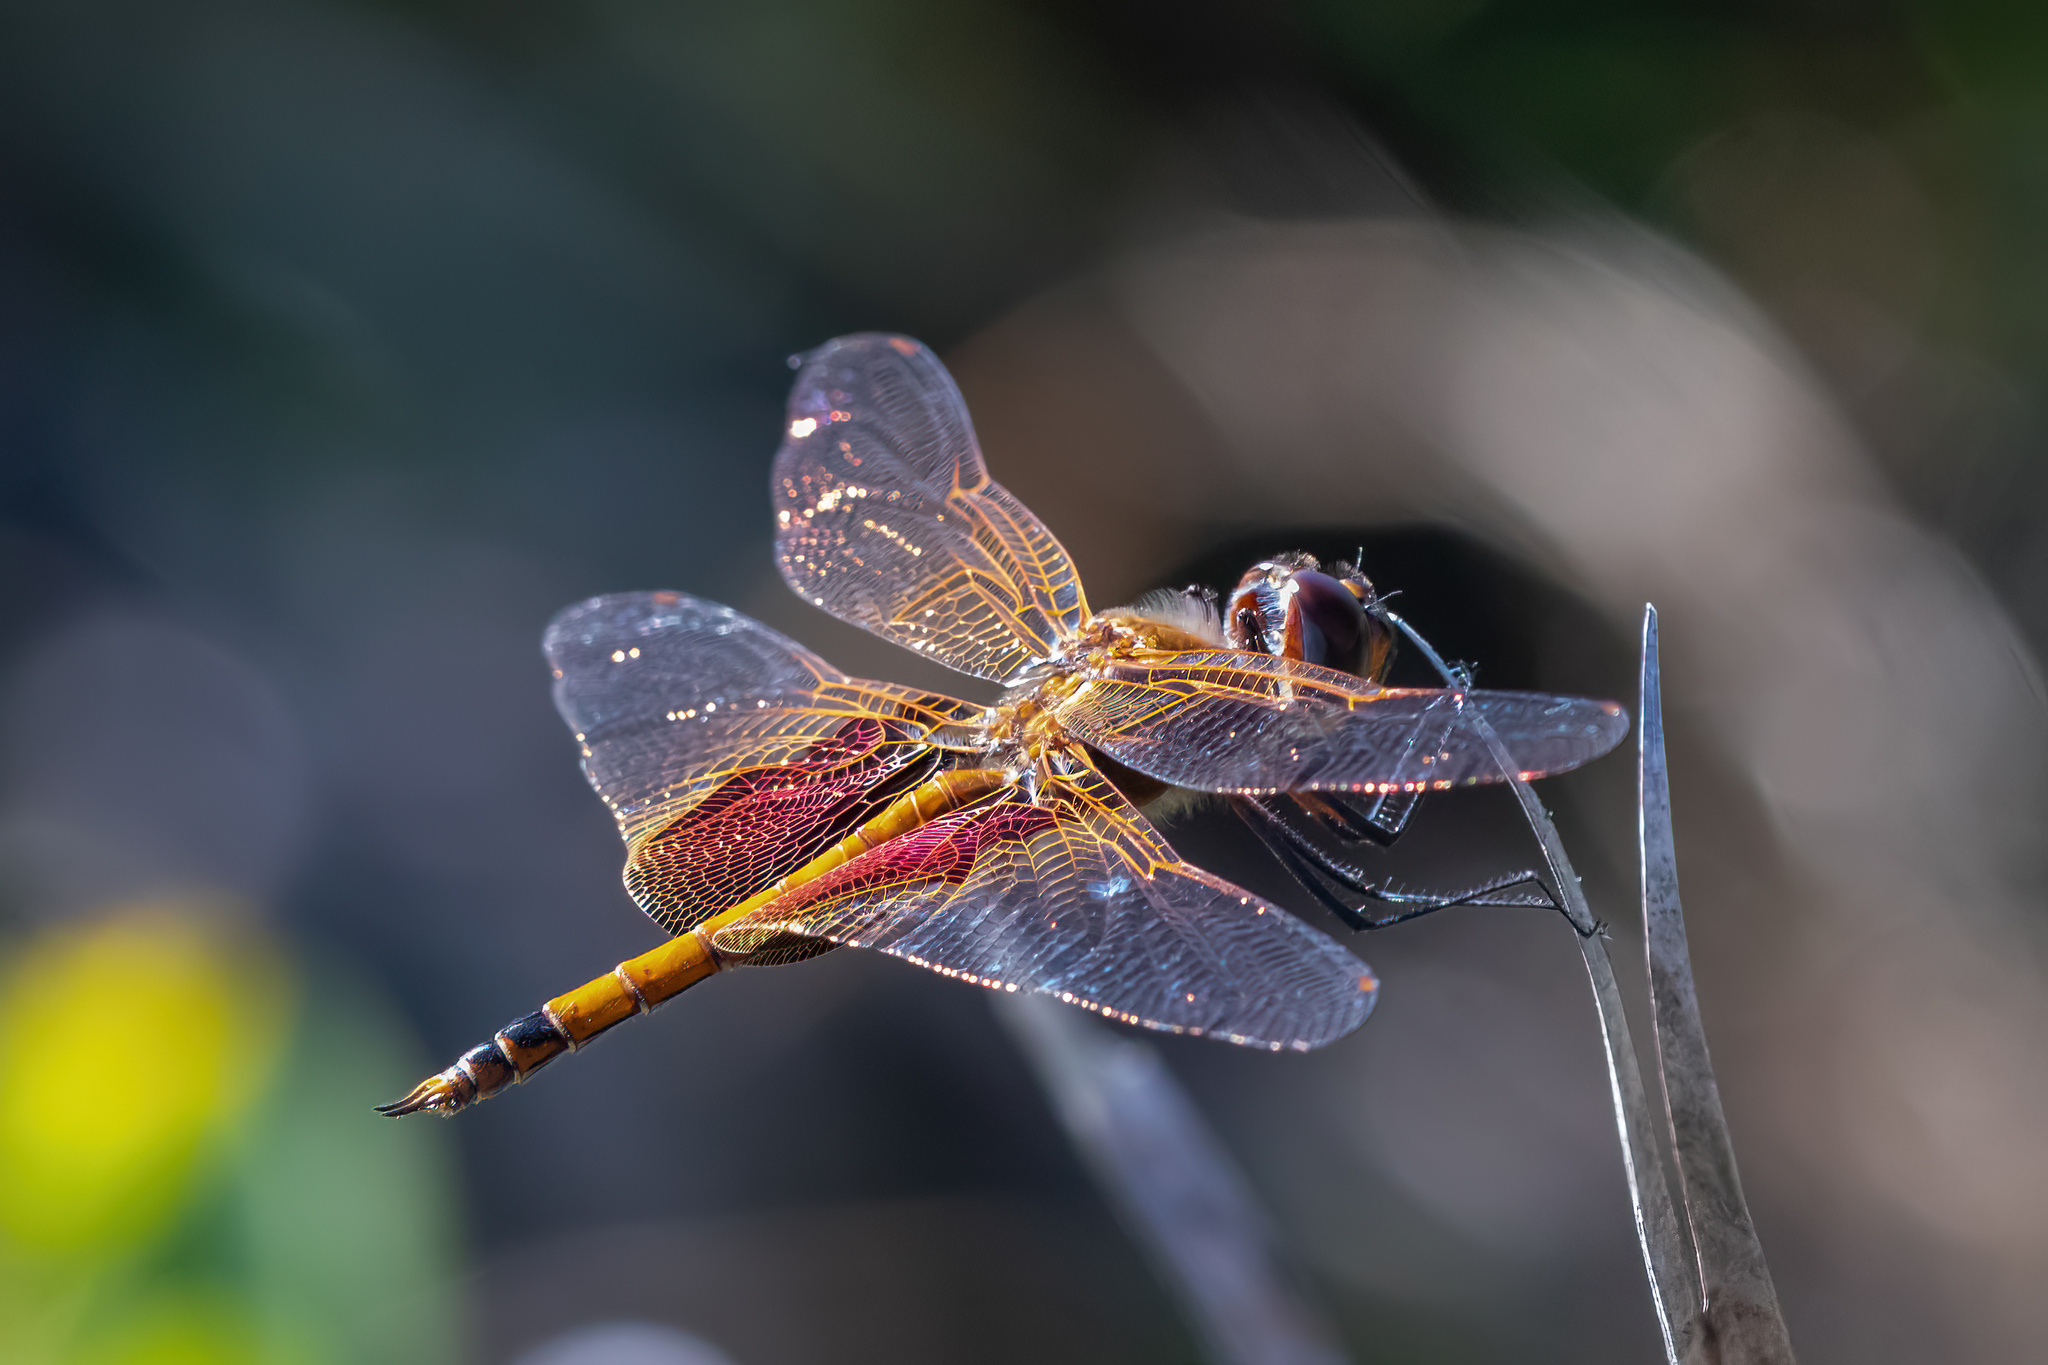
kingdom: Animalia
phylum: Arthropoda
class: Insecta
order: Odonata
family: Libellulidae
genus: Tramea
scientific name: Tramea carolina
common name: Carolina saddlebags
